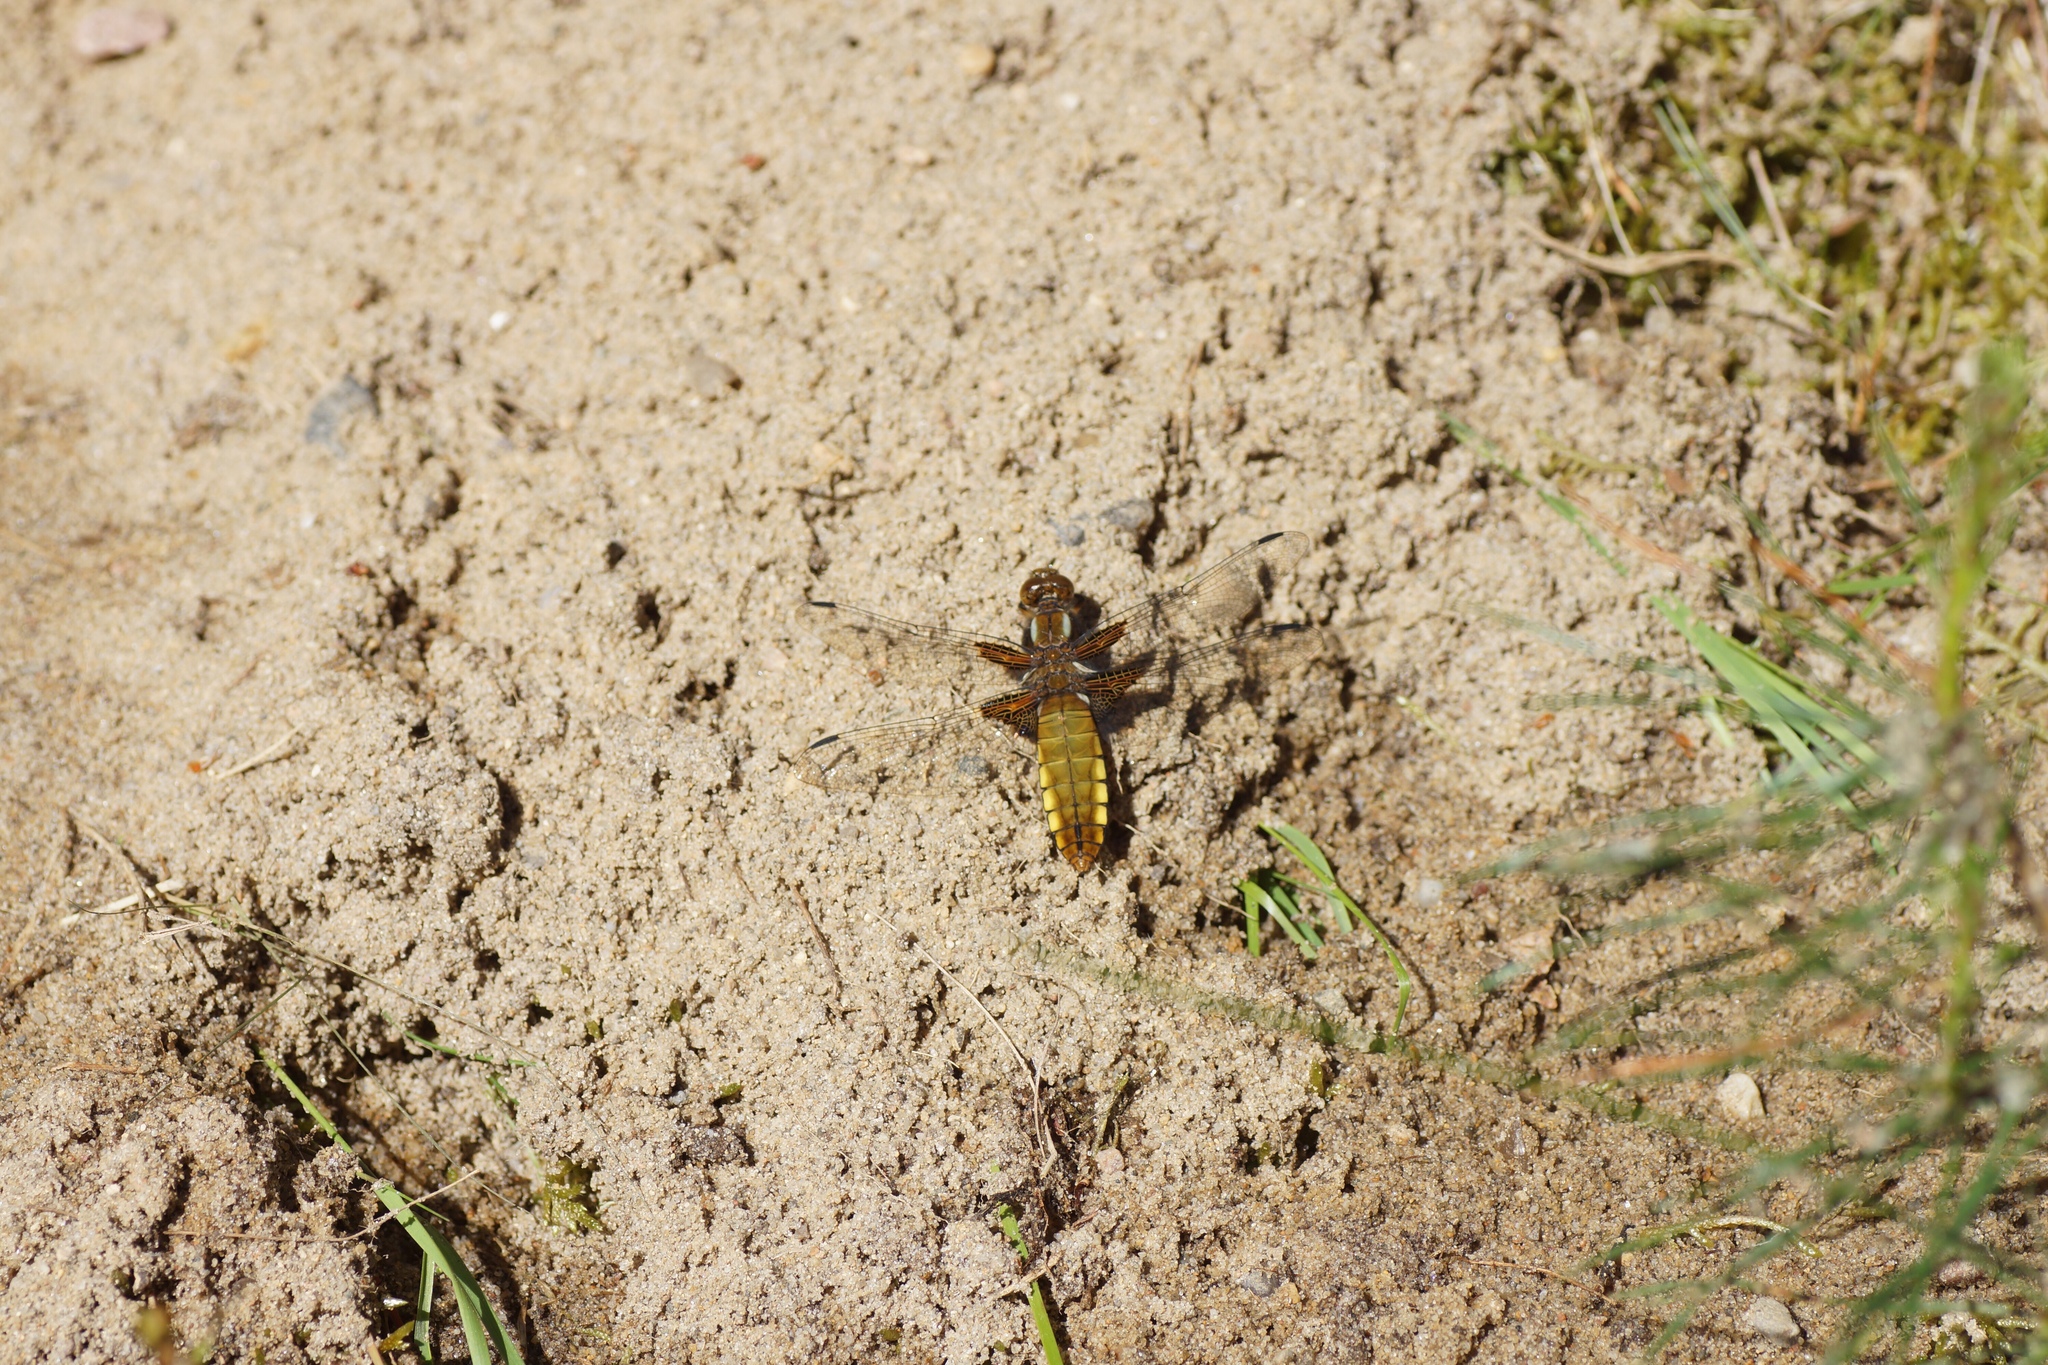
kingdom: Animalia
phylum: Arthropoda
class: Insecta
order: Odonata
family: Libellulidae
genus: Libellula
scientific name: Libellula depressa
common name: Broad-bodied chaser
